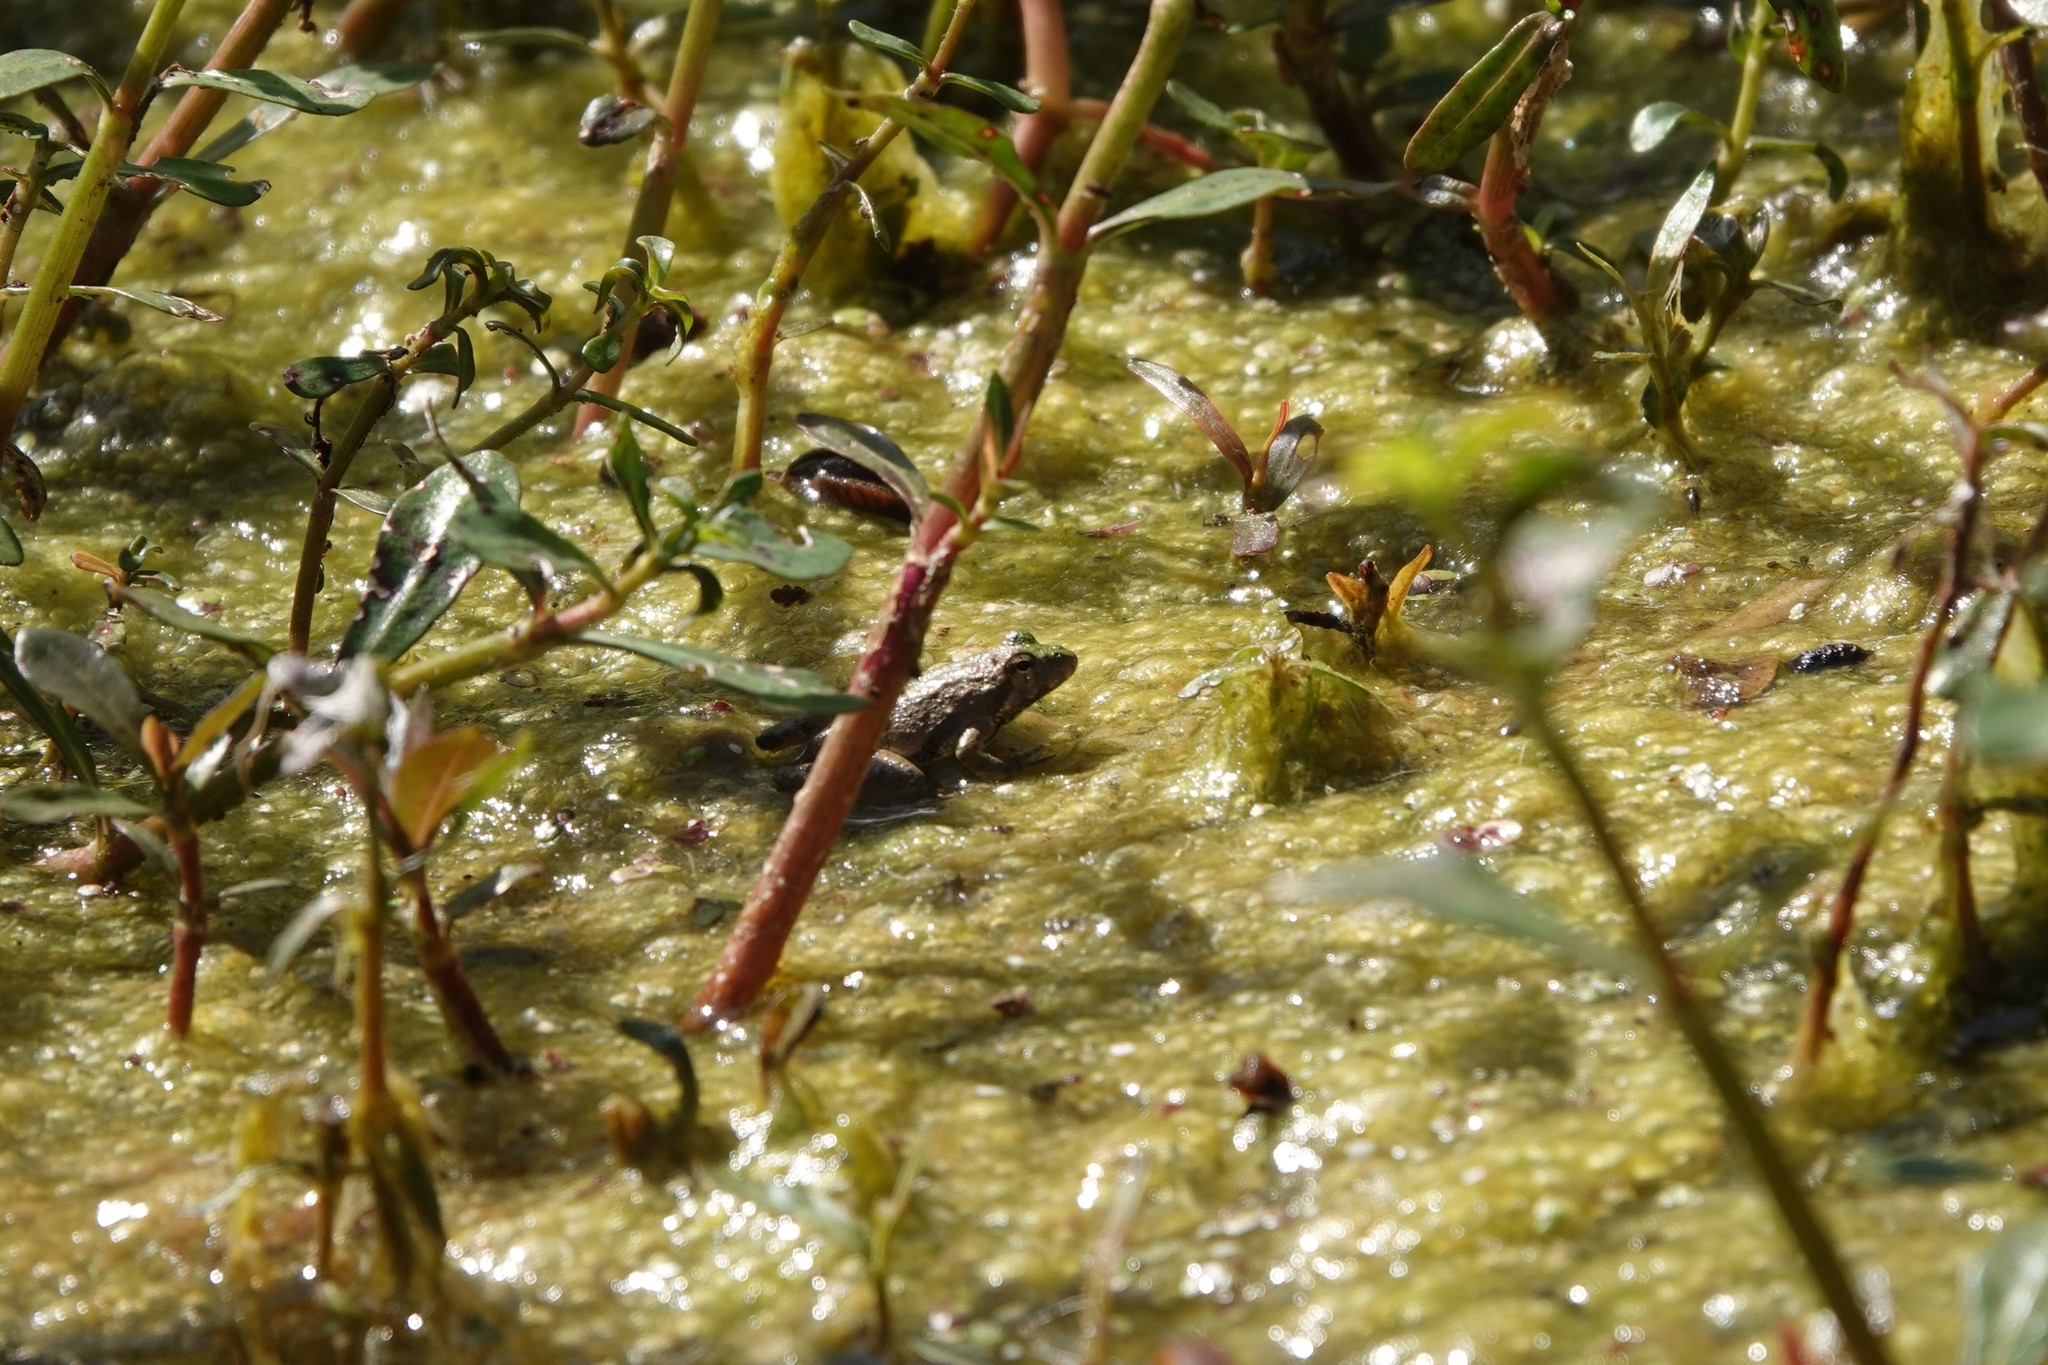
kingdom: Animalia
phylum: Chordata
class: Amphibia
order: Anura
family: Hylidae
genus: Acris
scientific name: Acris blanchardi
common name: Blanchard's cricket frog
